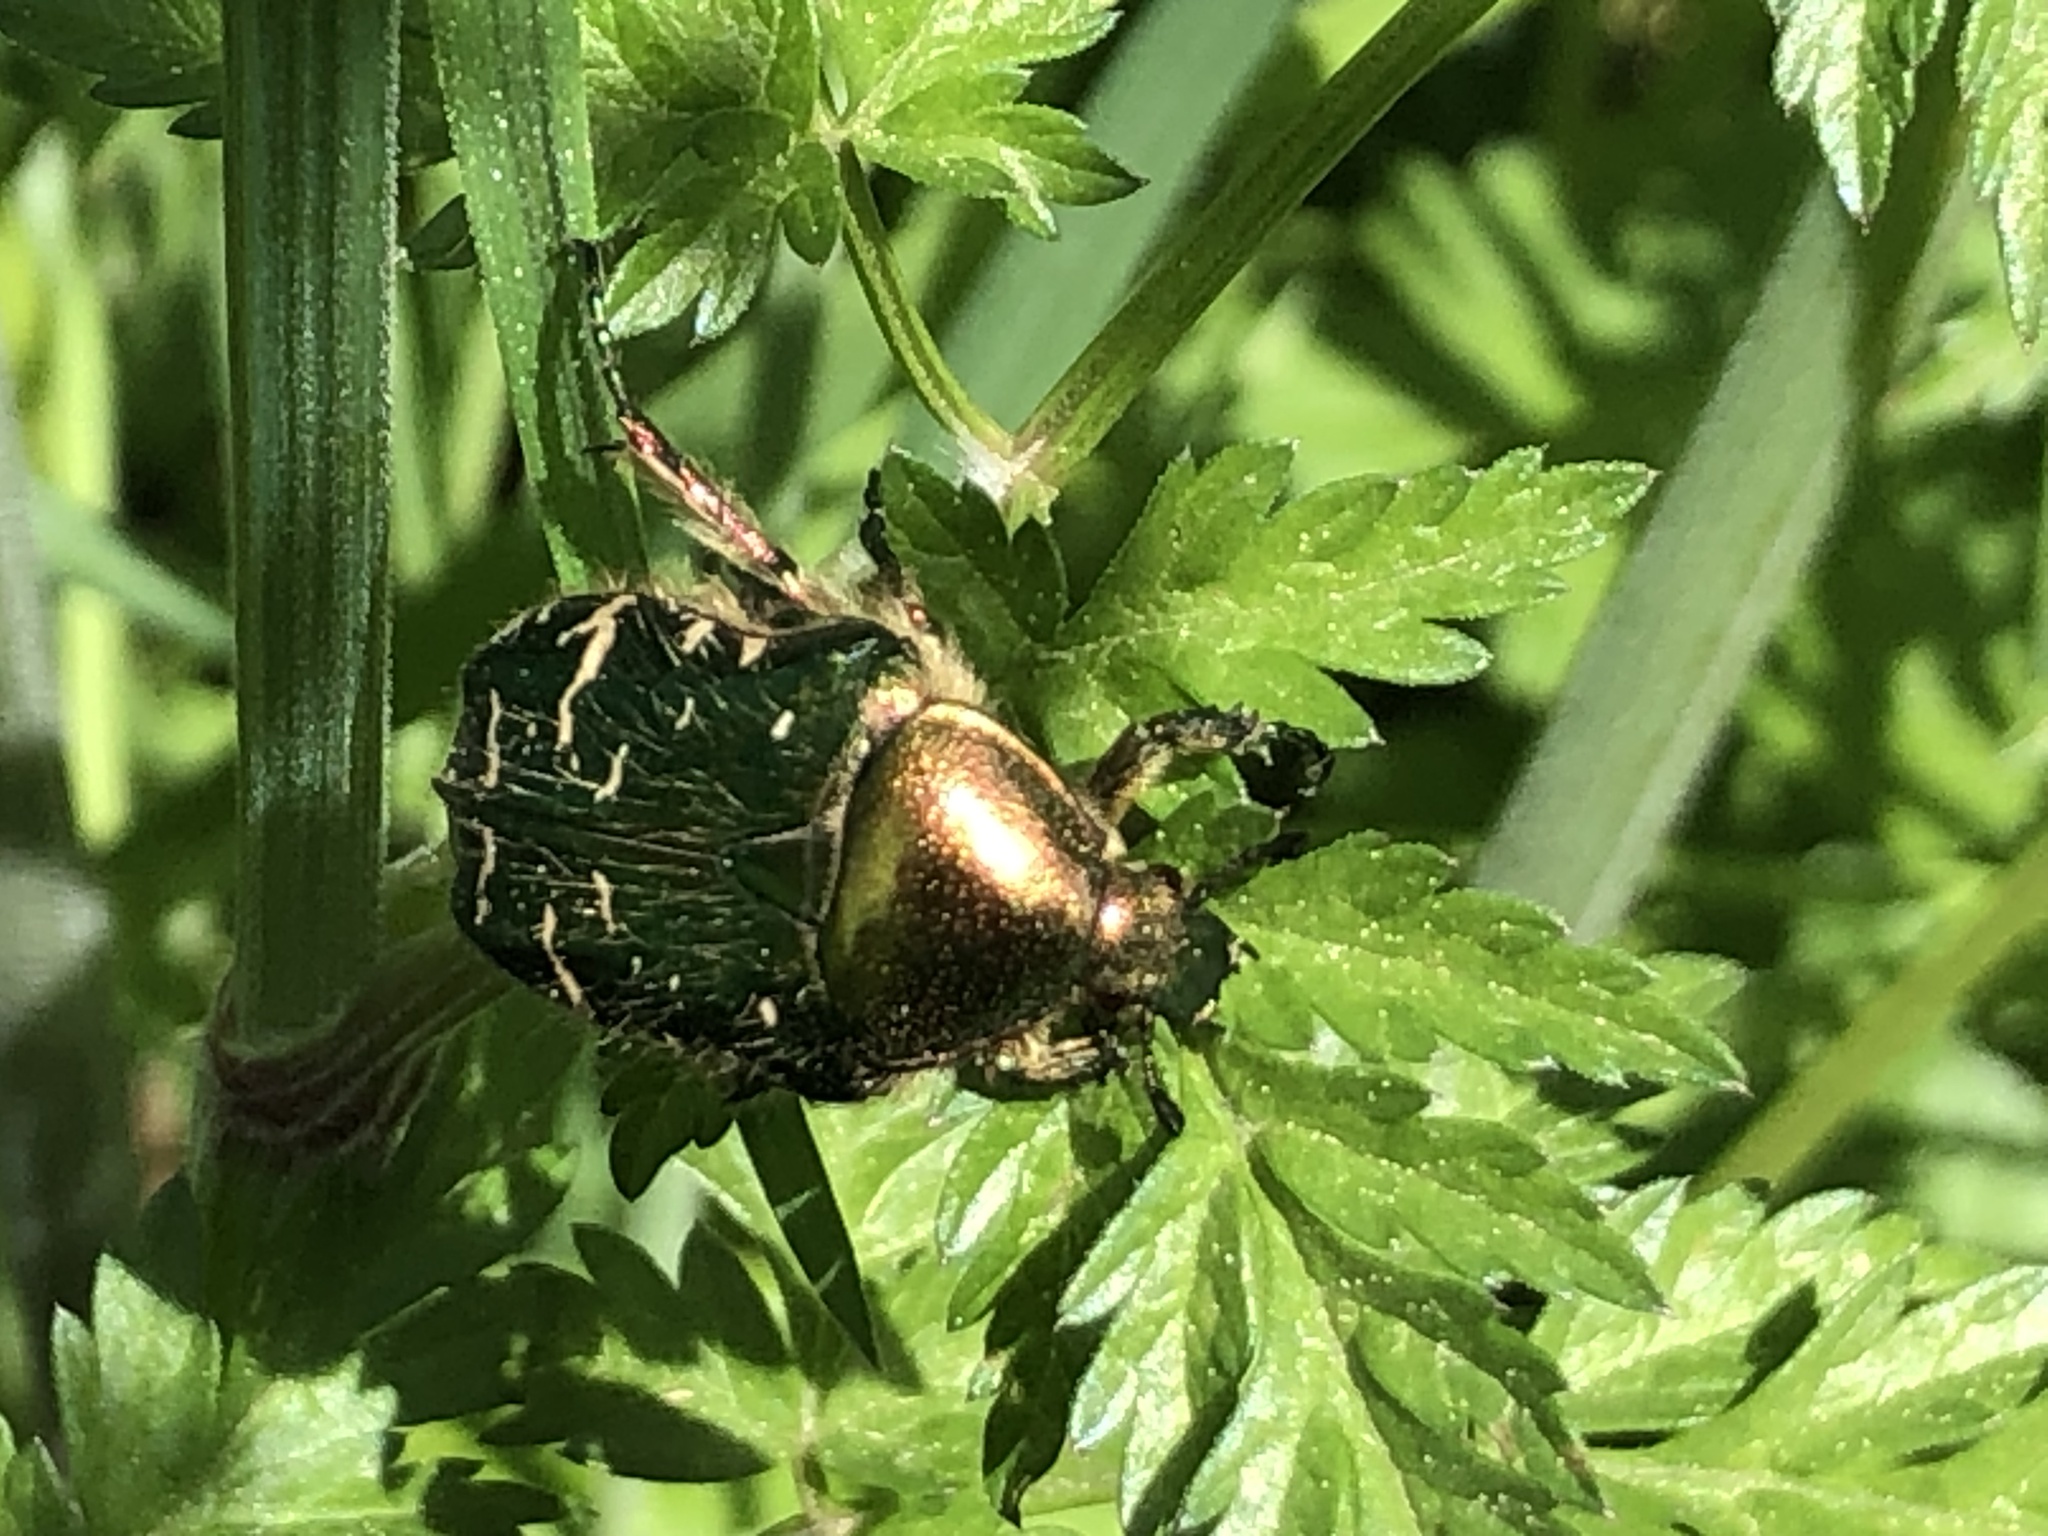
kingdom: Animalia
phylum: Arthropoda
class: Insecta
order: Coleoptera
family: Scarabaeidae
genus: Cetonia
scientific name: Cetonia aurata
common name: Rose chafer
